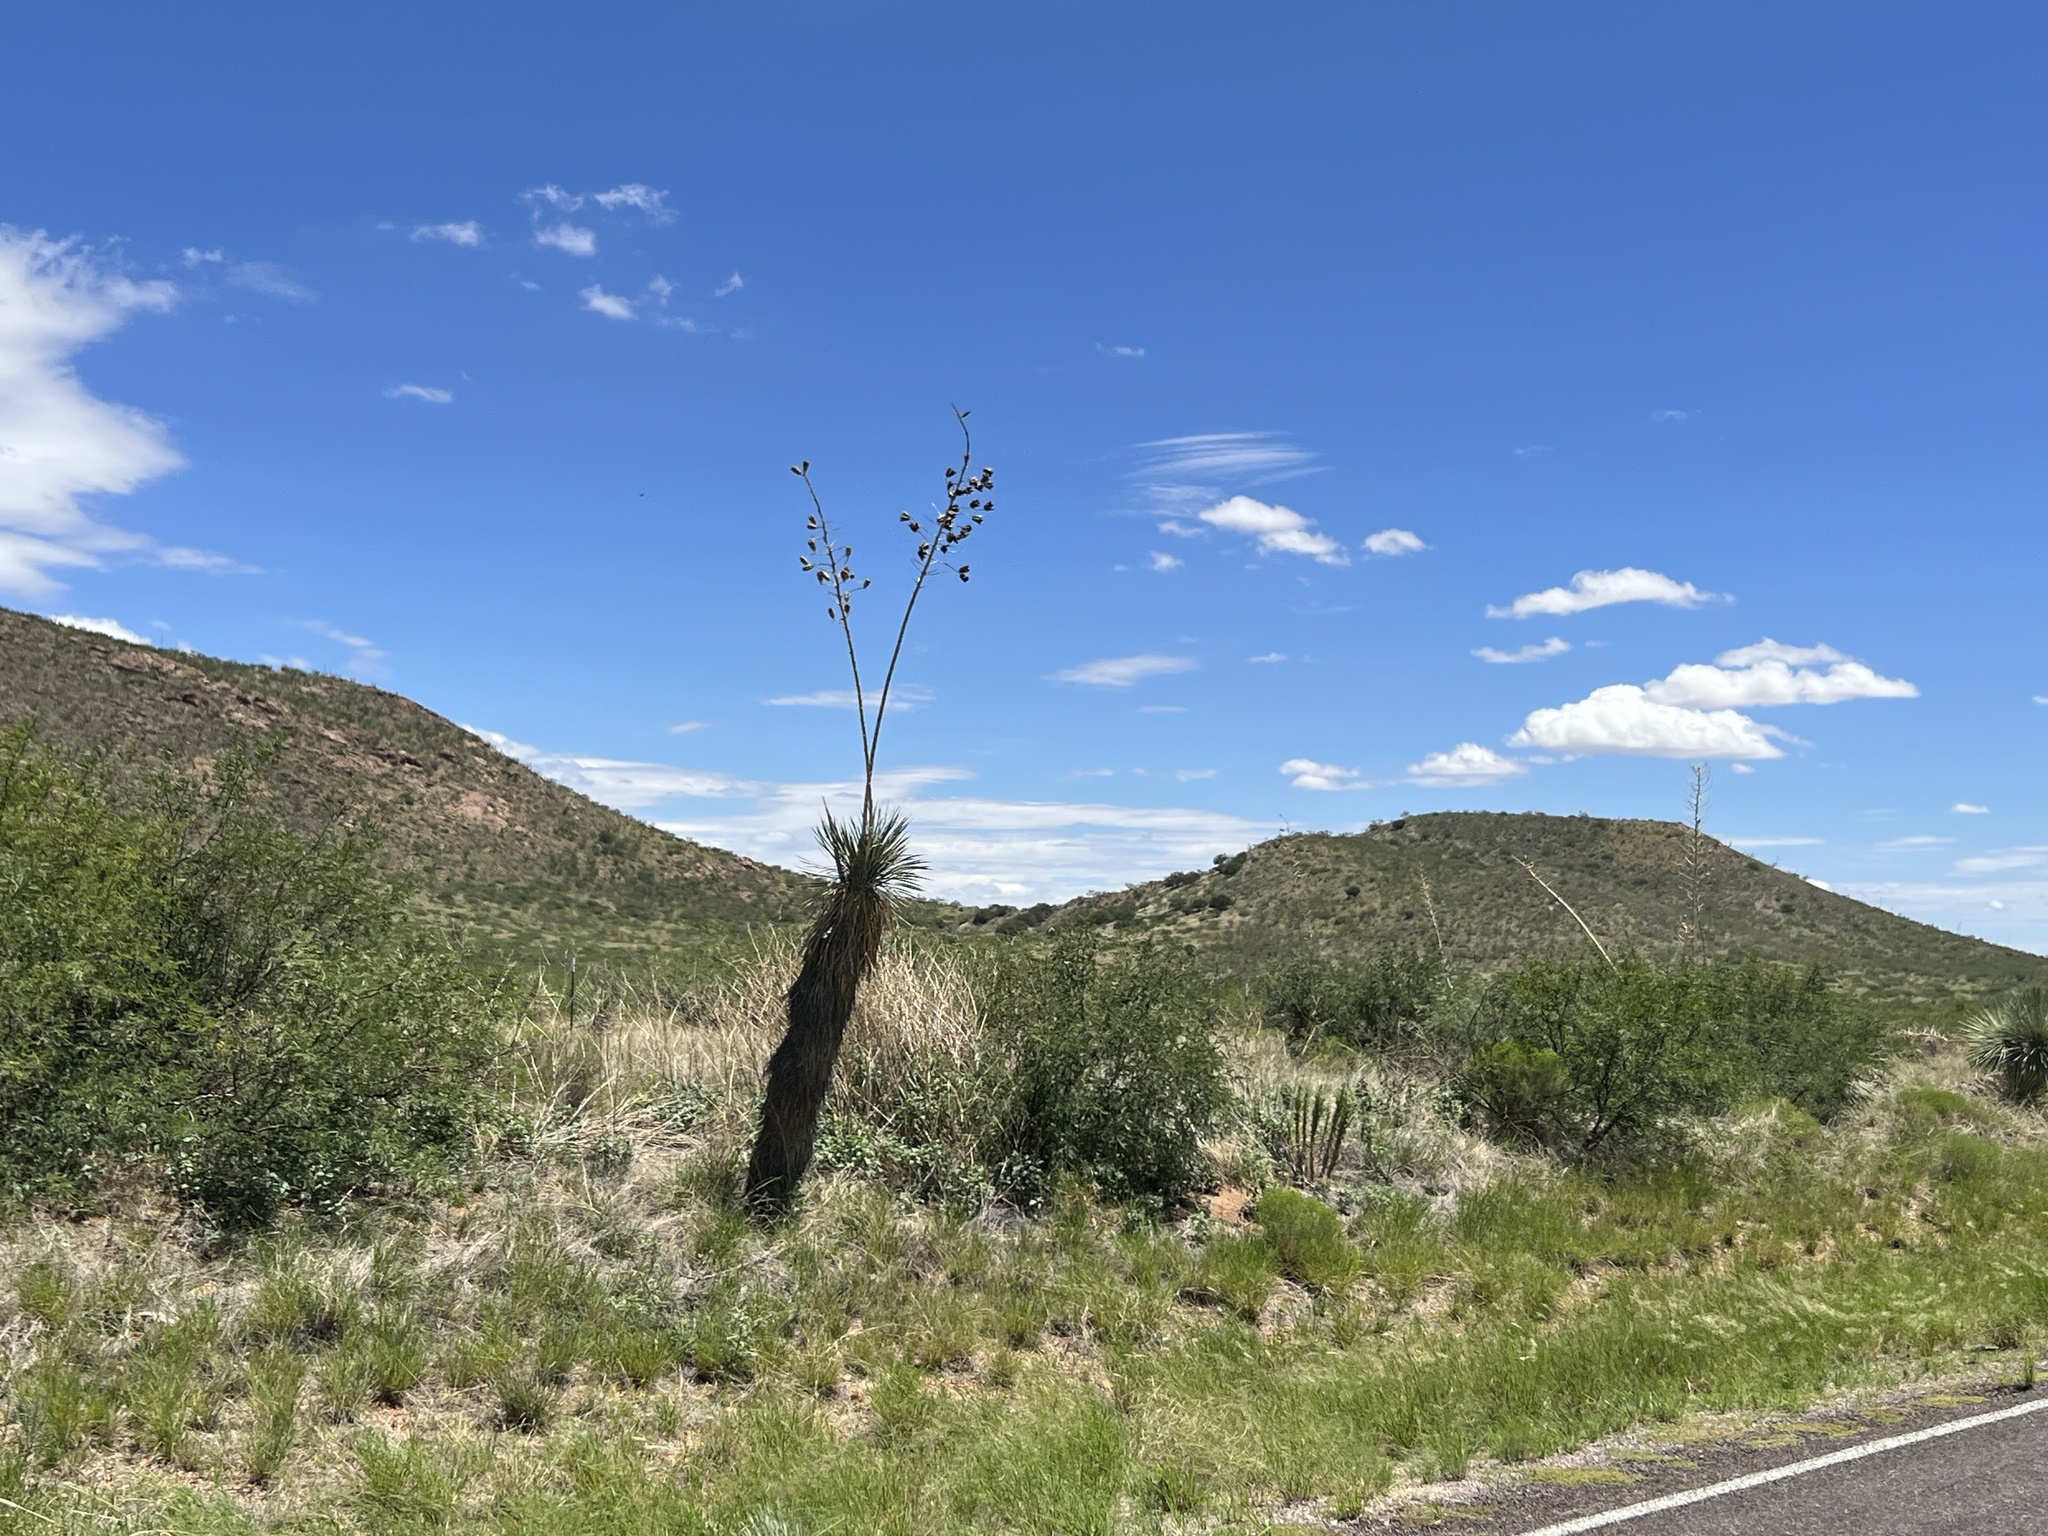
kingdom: Plantae
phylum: Tracheophyta
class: Liliopsida
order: Asparagales
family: Asparagaceae
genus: Yucca
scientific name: Yucca elata
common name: Palmella
